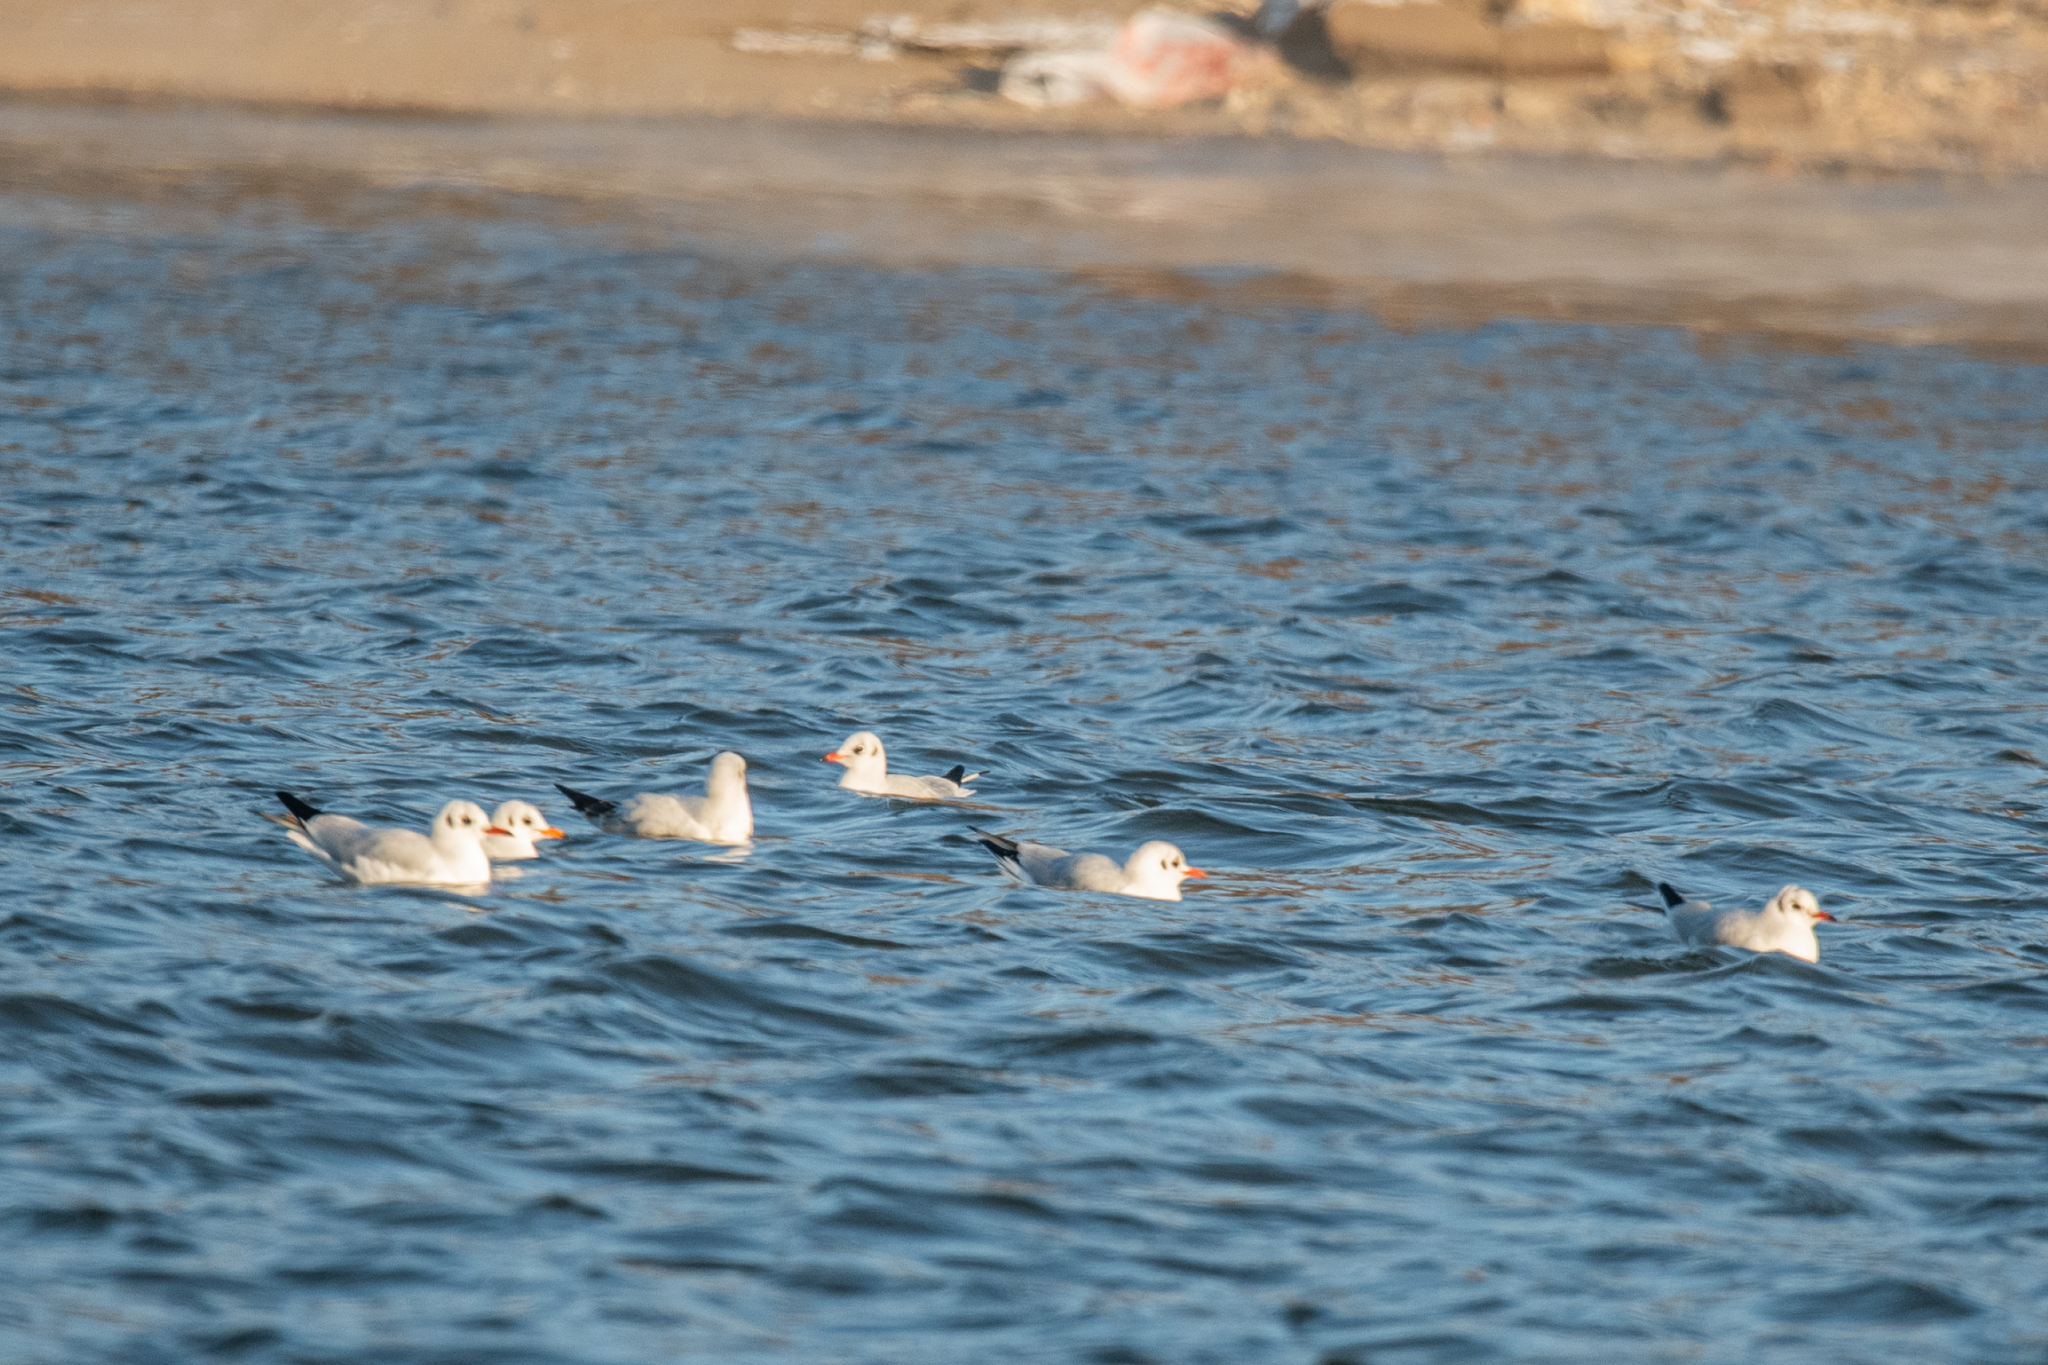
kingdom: Animalia
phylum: Chordata
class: Aves
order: Charadriiformes
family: Laridae
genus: Chroicocephalus
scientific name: Chroicocephalus ridibundus
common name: Black-headed gull
